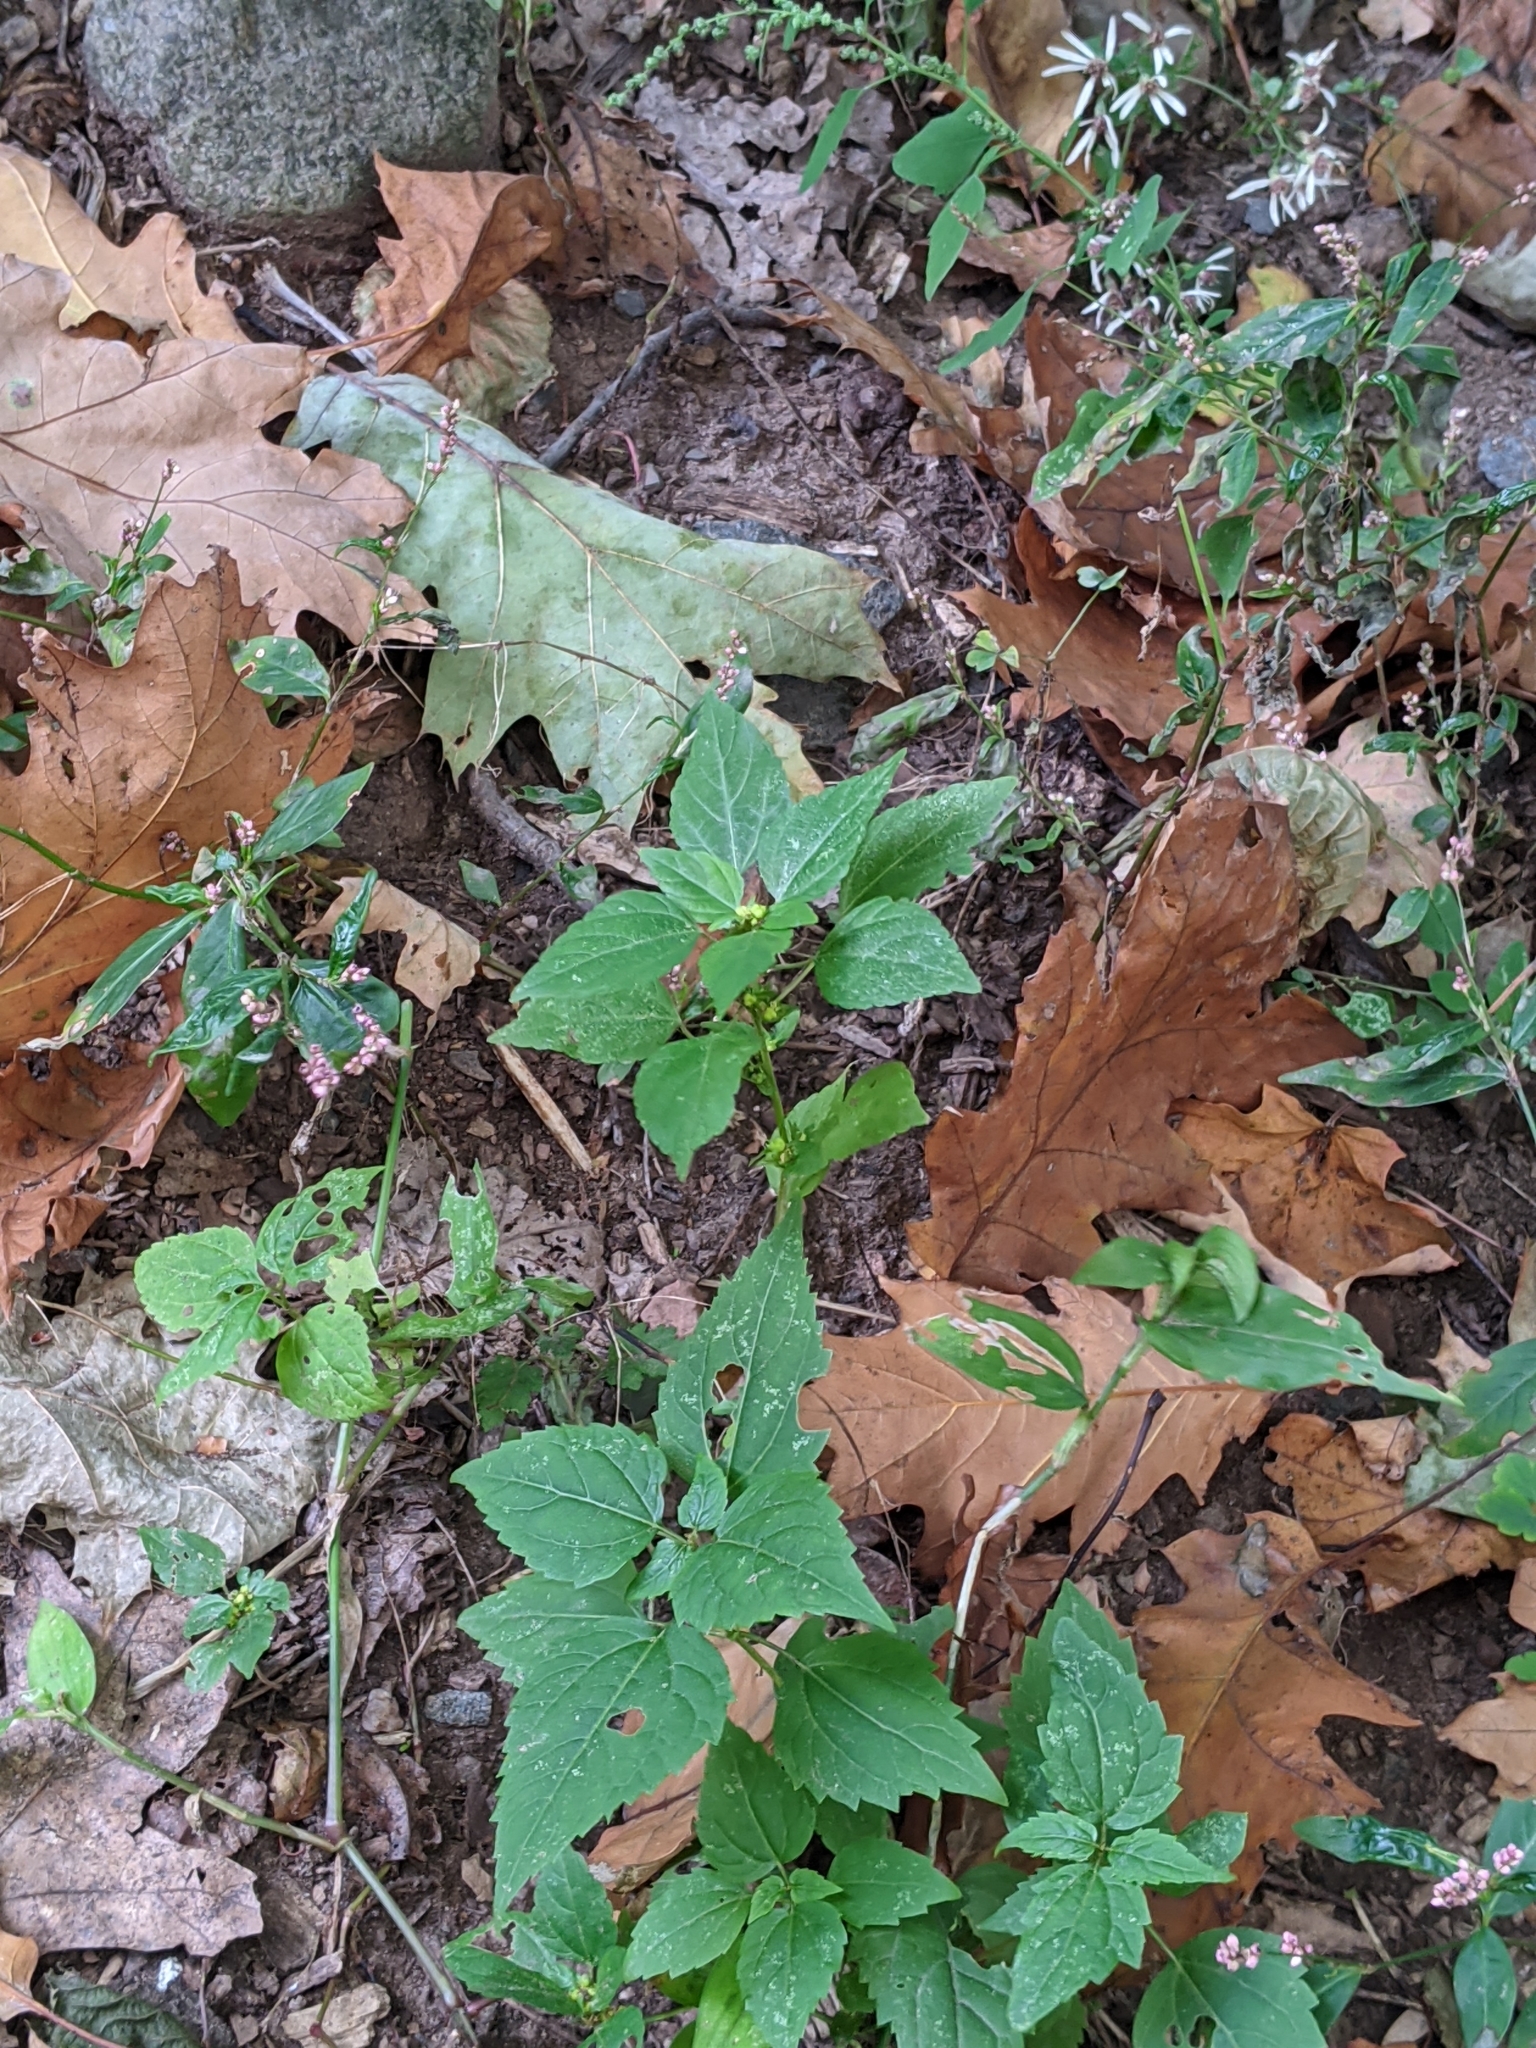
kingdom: Plantae
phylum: Tracheophyta
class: Magnoliopsida
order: Malpighiales
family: Euphorbiaceae
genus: Acalypha
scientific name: Acalypha rhomboidea
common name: Rhombic copperleaf
